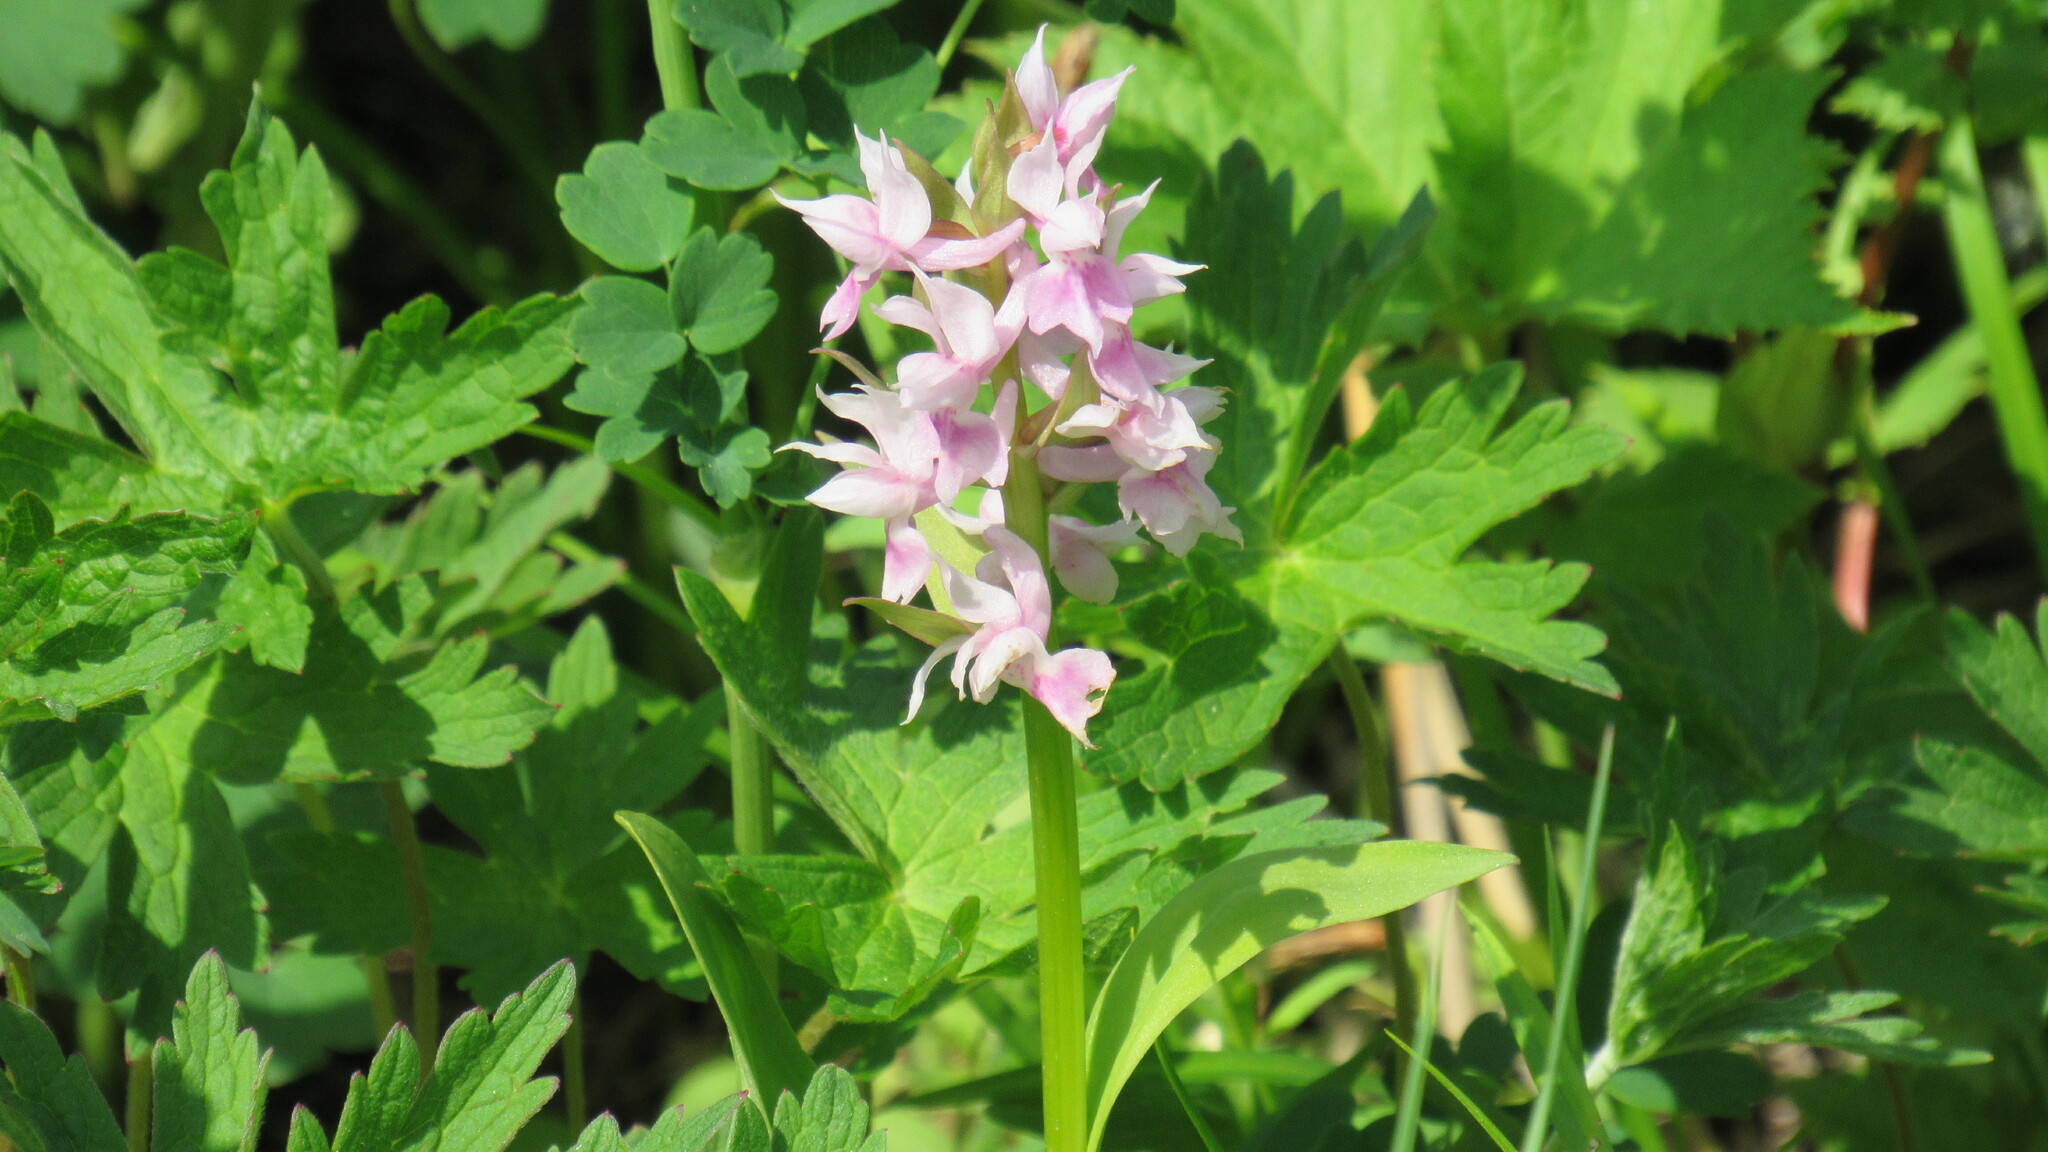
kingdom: Plantae
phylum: Tracheophyta
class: Liliopsida
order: Asparagales
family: Orchidaceae
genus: Dactylorhiza
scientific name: Dactylorhiza aristata
